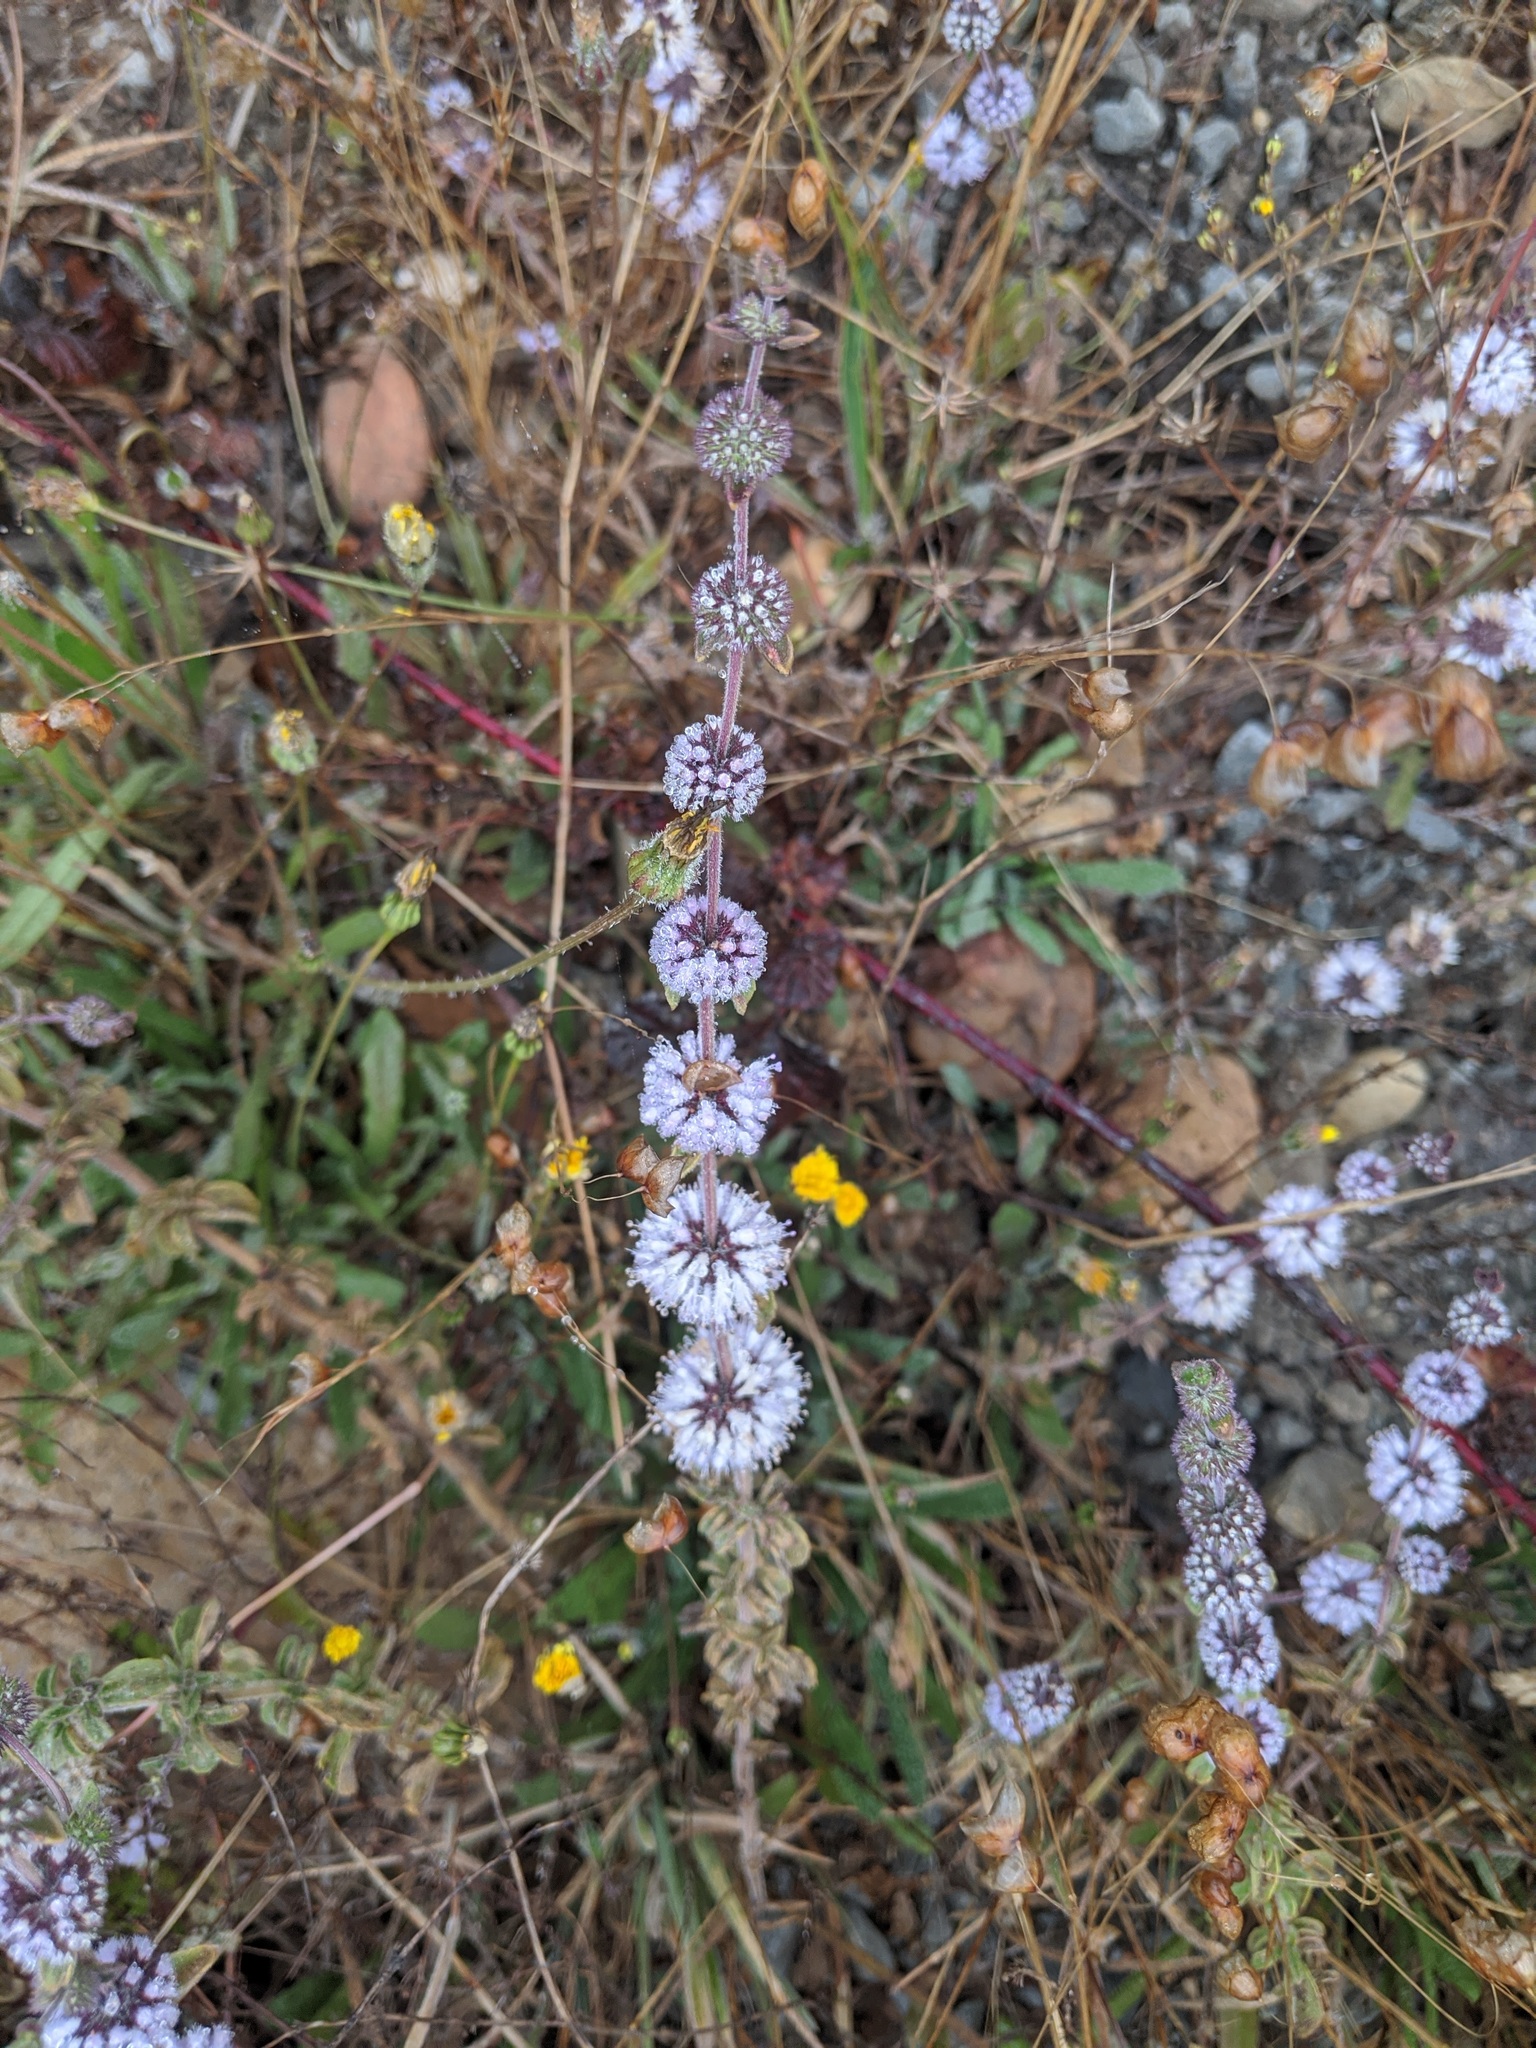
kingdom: Plantae
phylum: Tracheophyta
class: Magnoliopsida
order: Lamiales
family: Lamiaceae
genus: Mentha
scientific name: Mentha pulegium
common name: Pennyroyal
